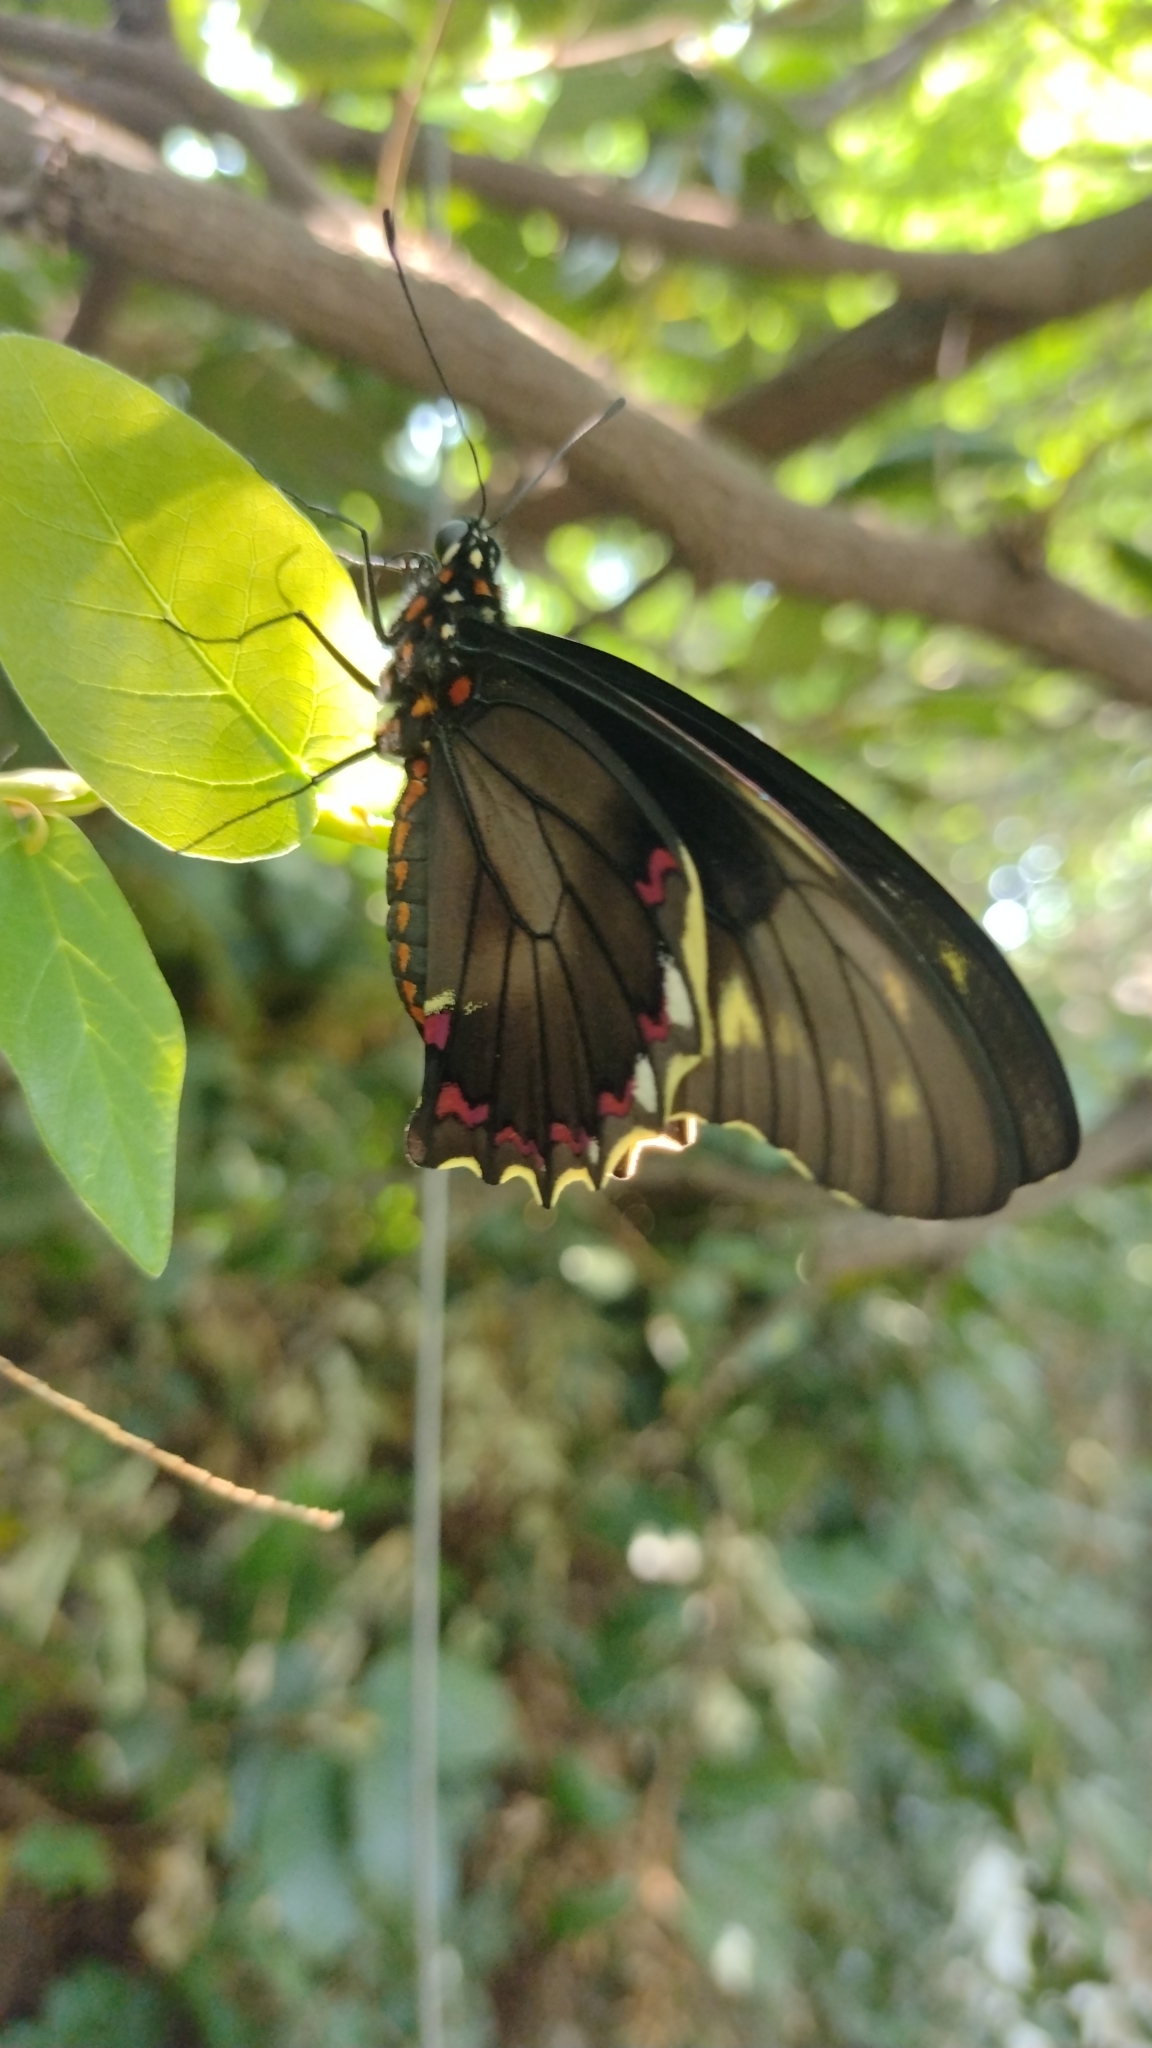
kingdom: Animalia
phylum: Arthropoda
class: Insecta
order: Lepidoptera
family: Papilionidae
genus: Battus
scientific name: Battus polydamas
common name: Polydamas swallowtail
